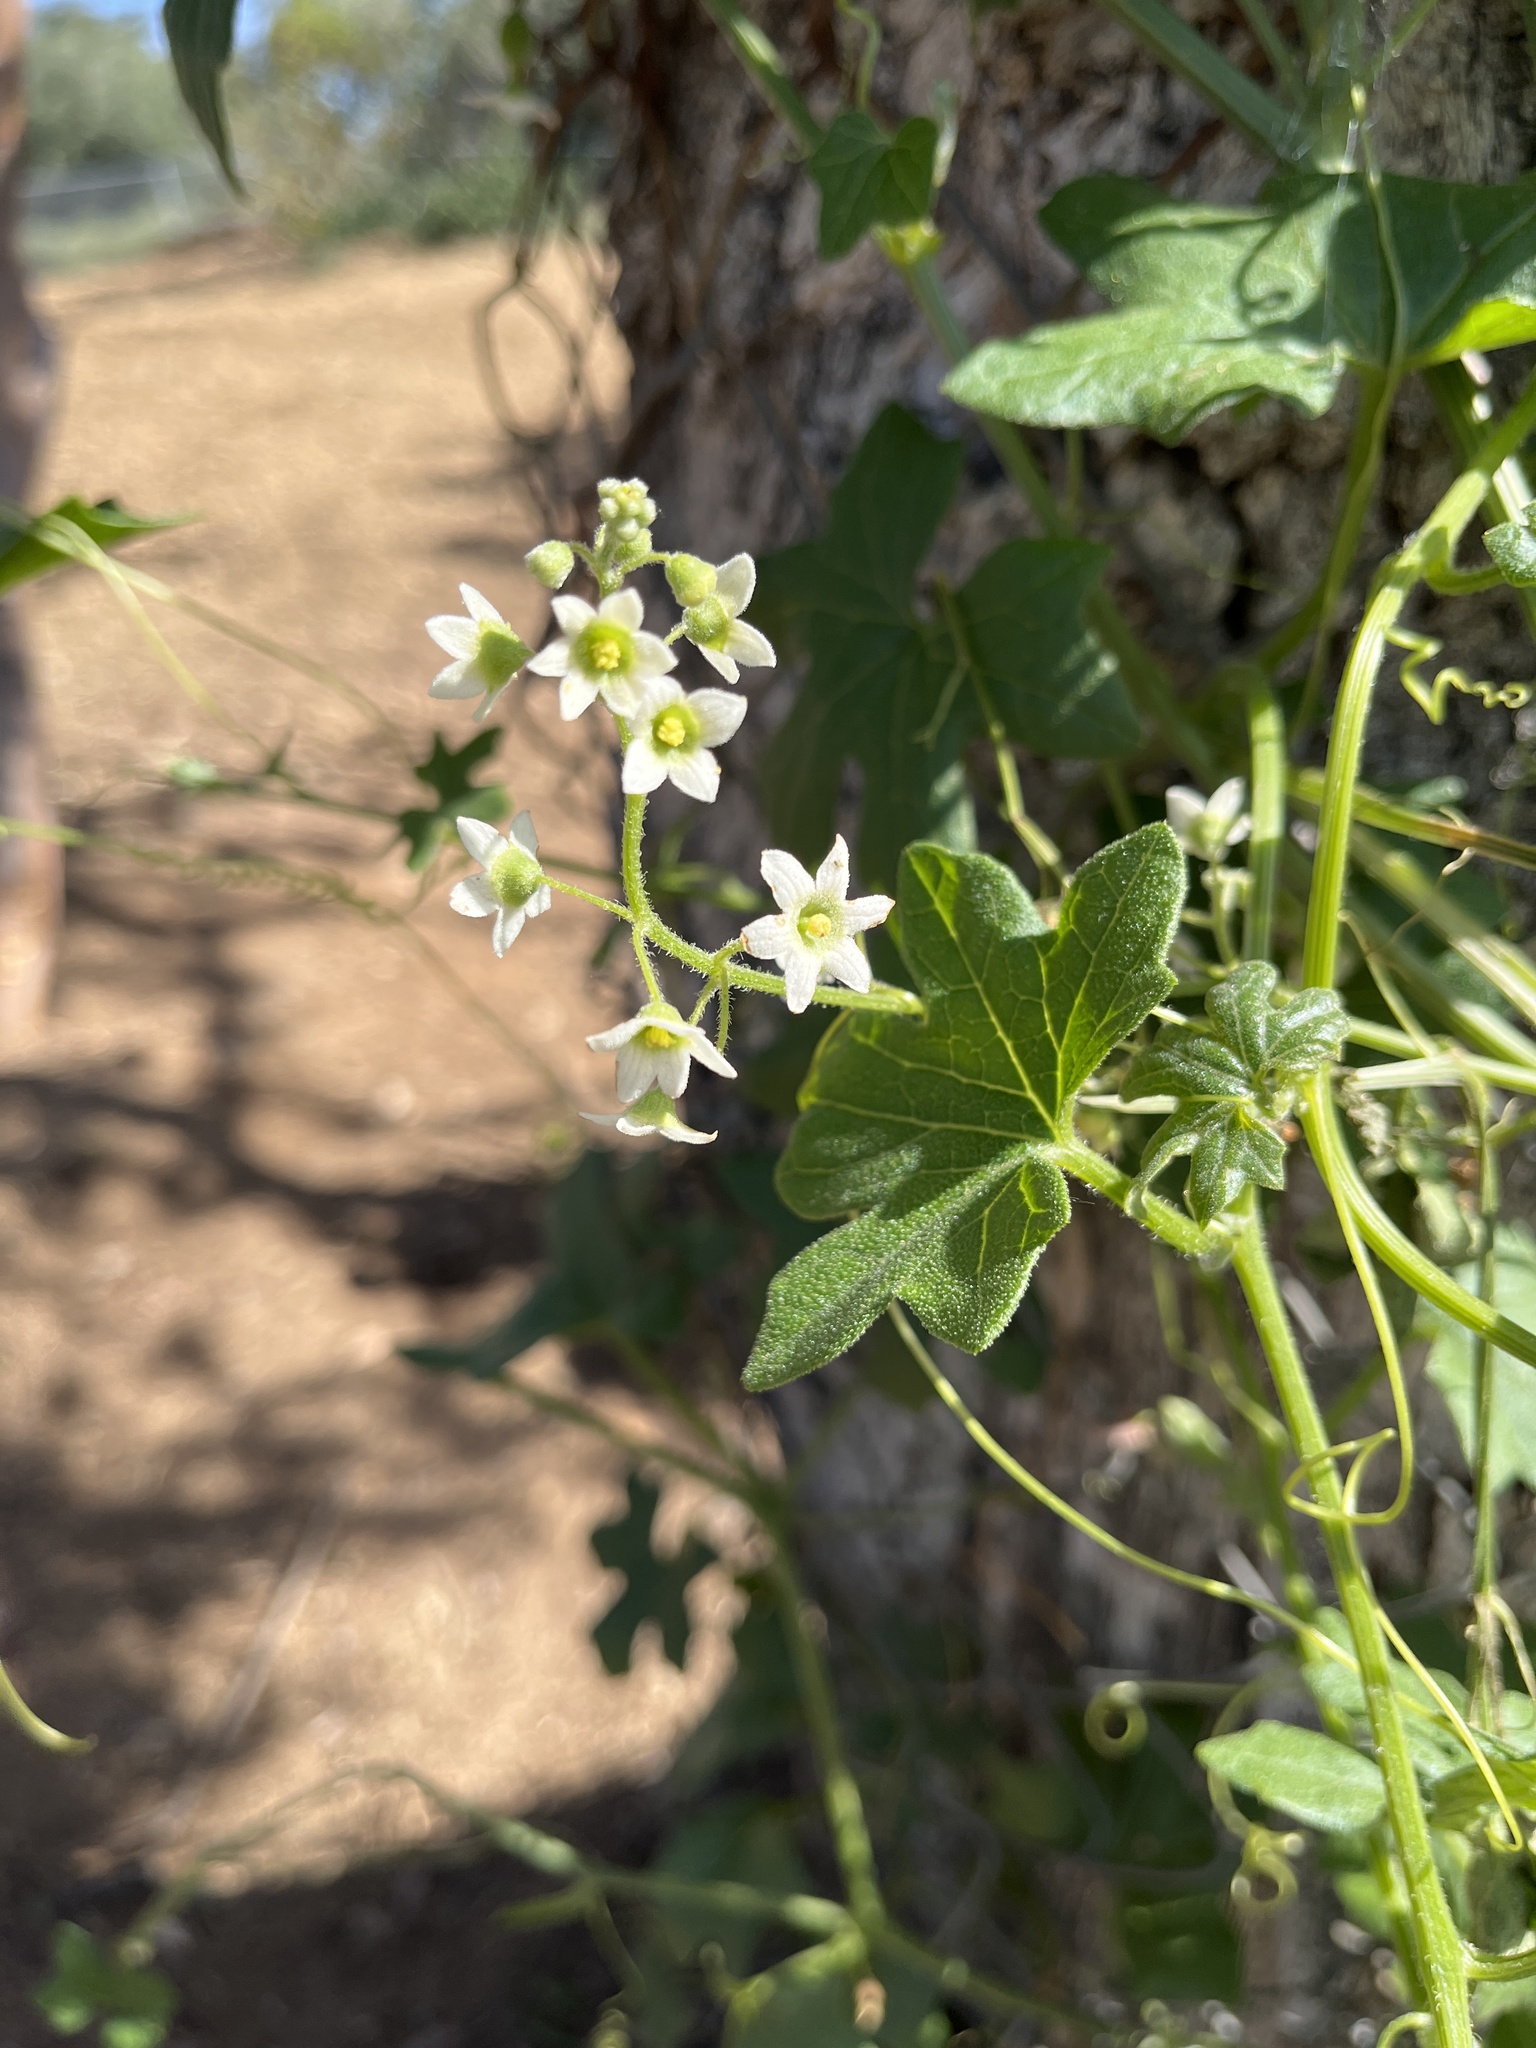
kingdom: Plantae
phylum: Tracheophyta
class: Magnoliopsida
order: Cucurbitales
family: Cucurbitaceae
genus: Marah
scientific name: Marah macrocarpa
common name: Cucamonga manroot
